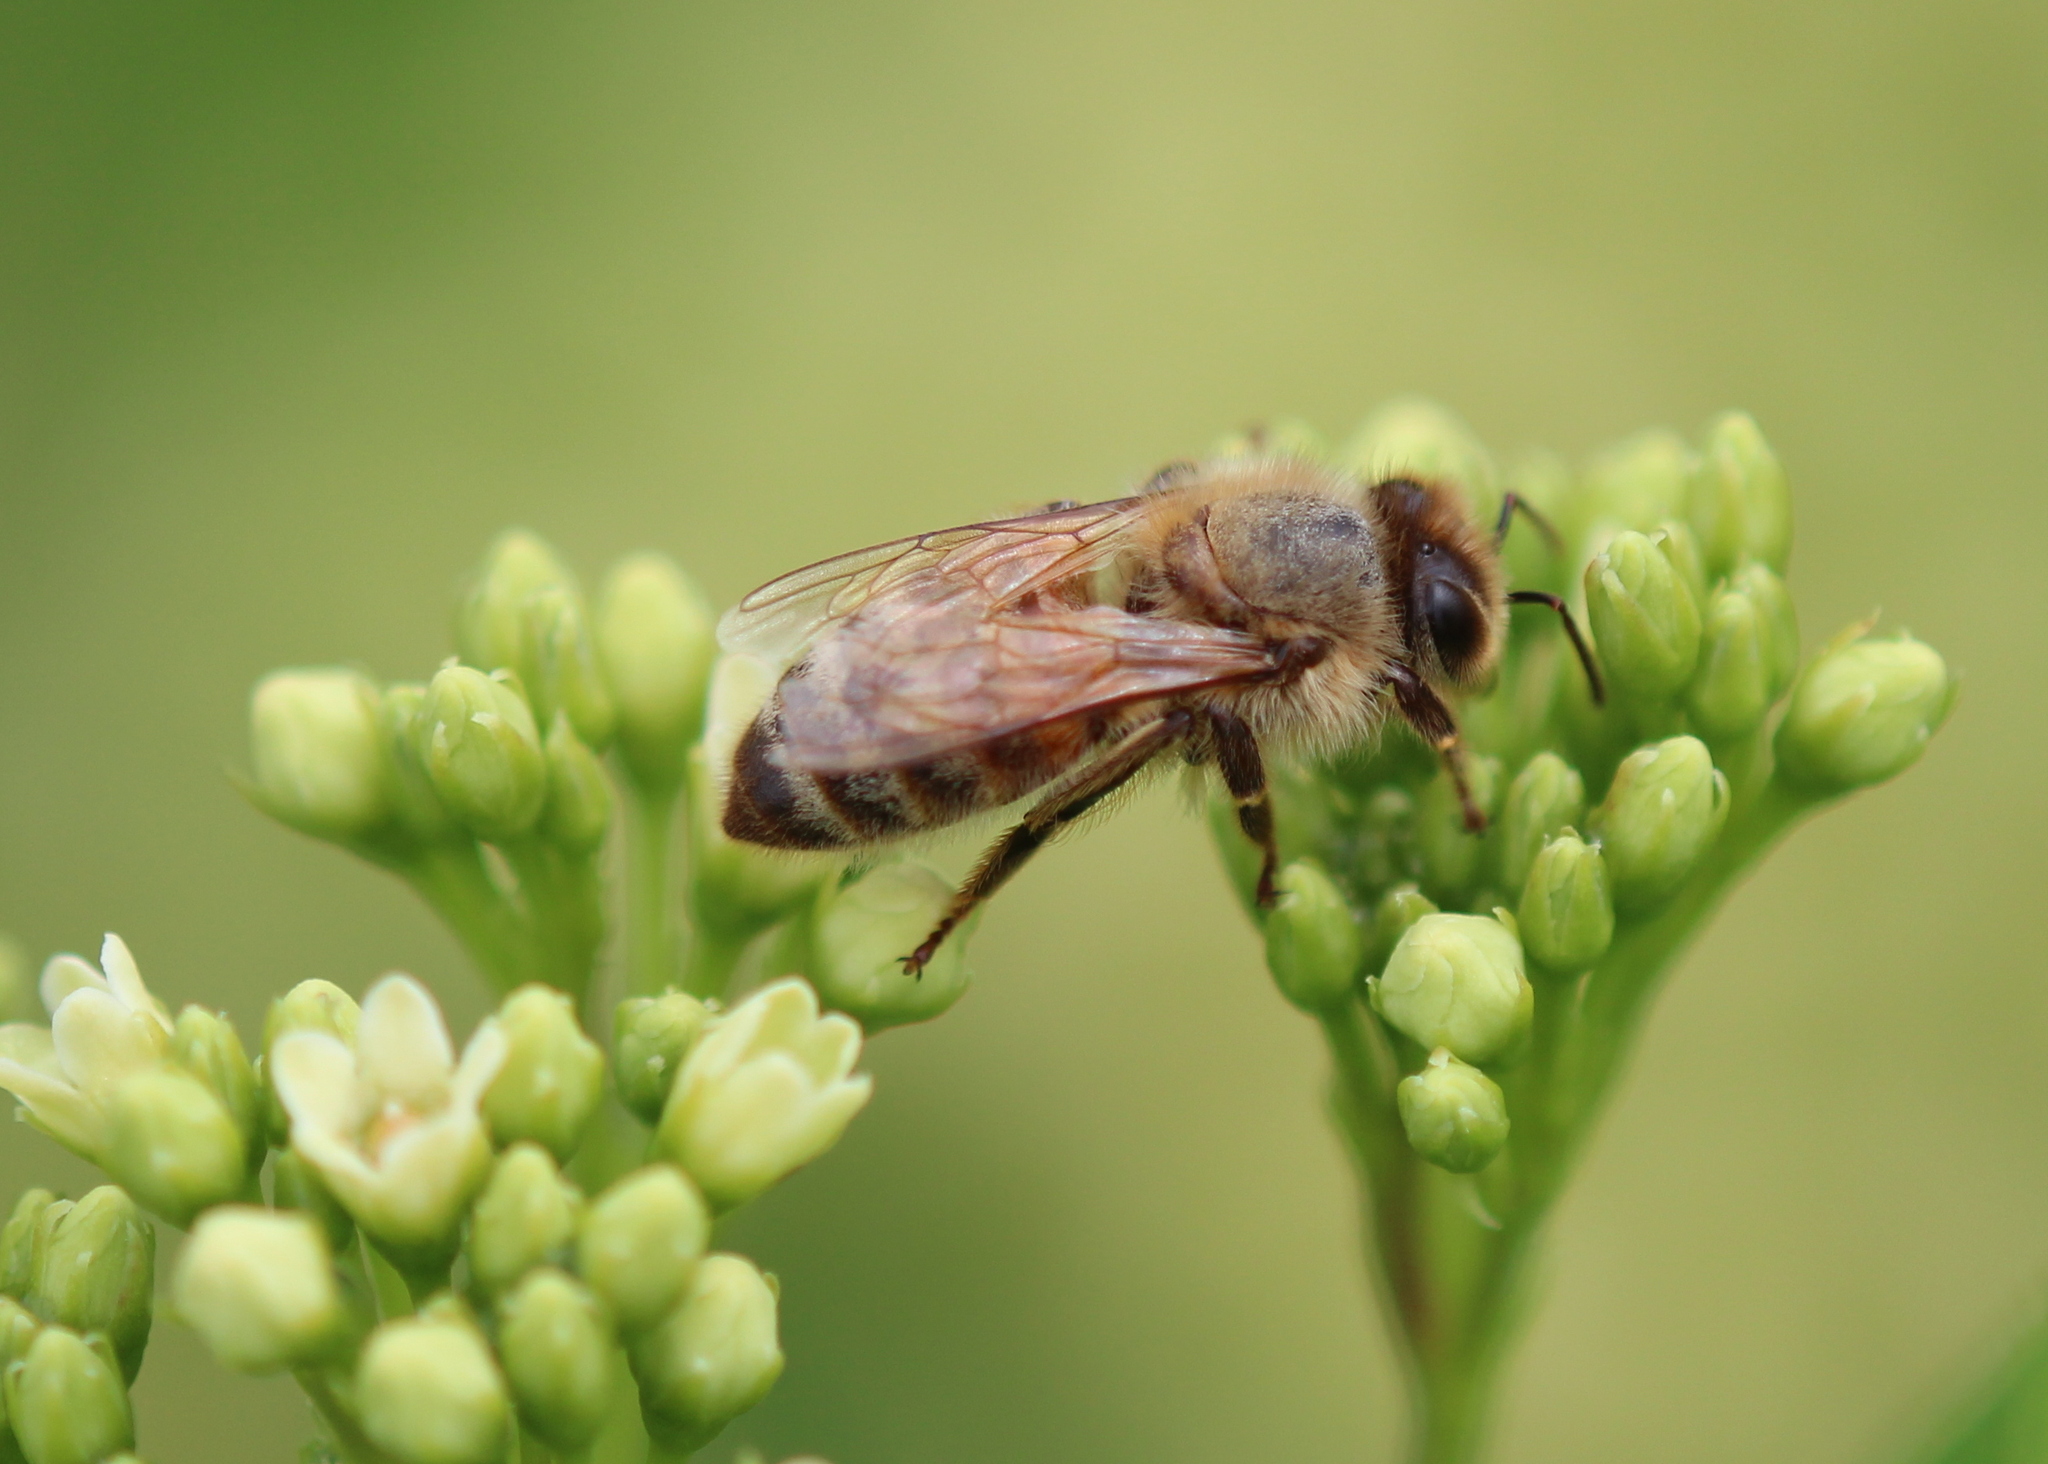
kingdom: Animalia
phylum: Arthropoda
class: Insecta
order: Hymenoptera
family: Apidae
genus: Apis
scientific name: Apis mellifera
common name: Honey bee
